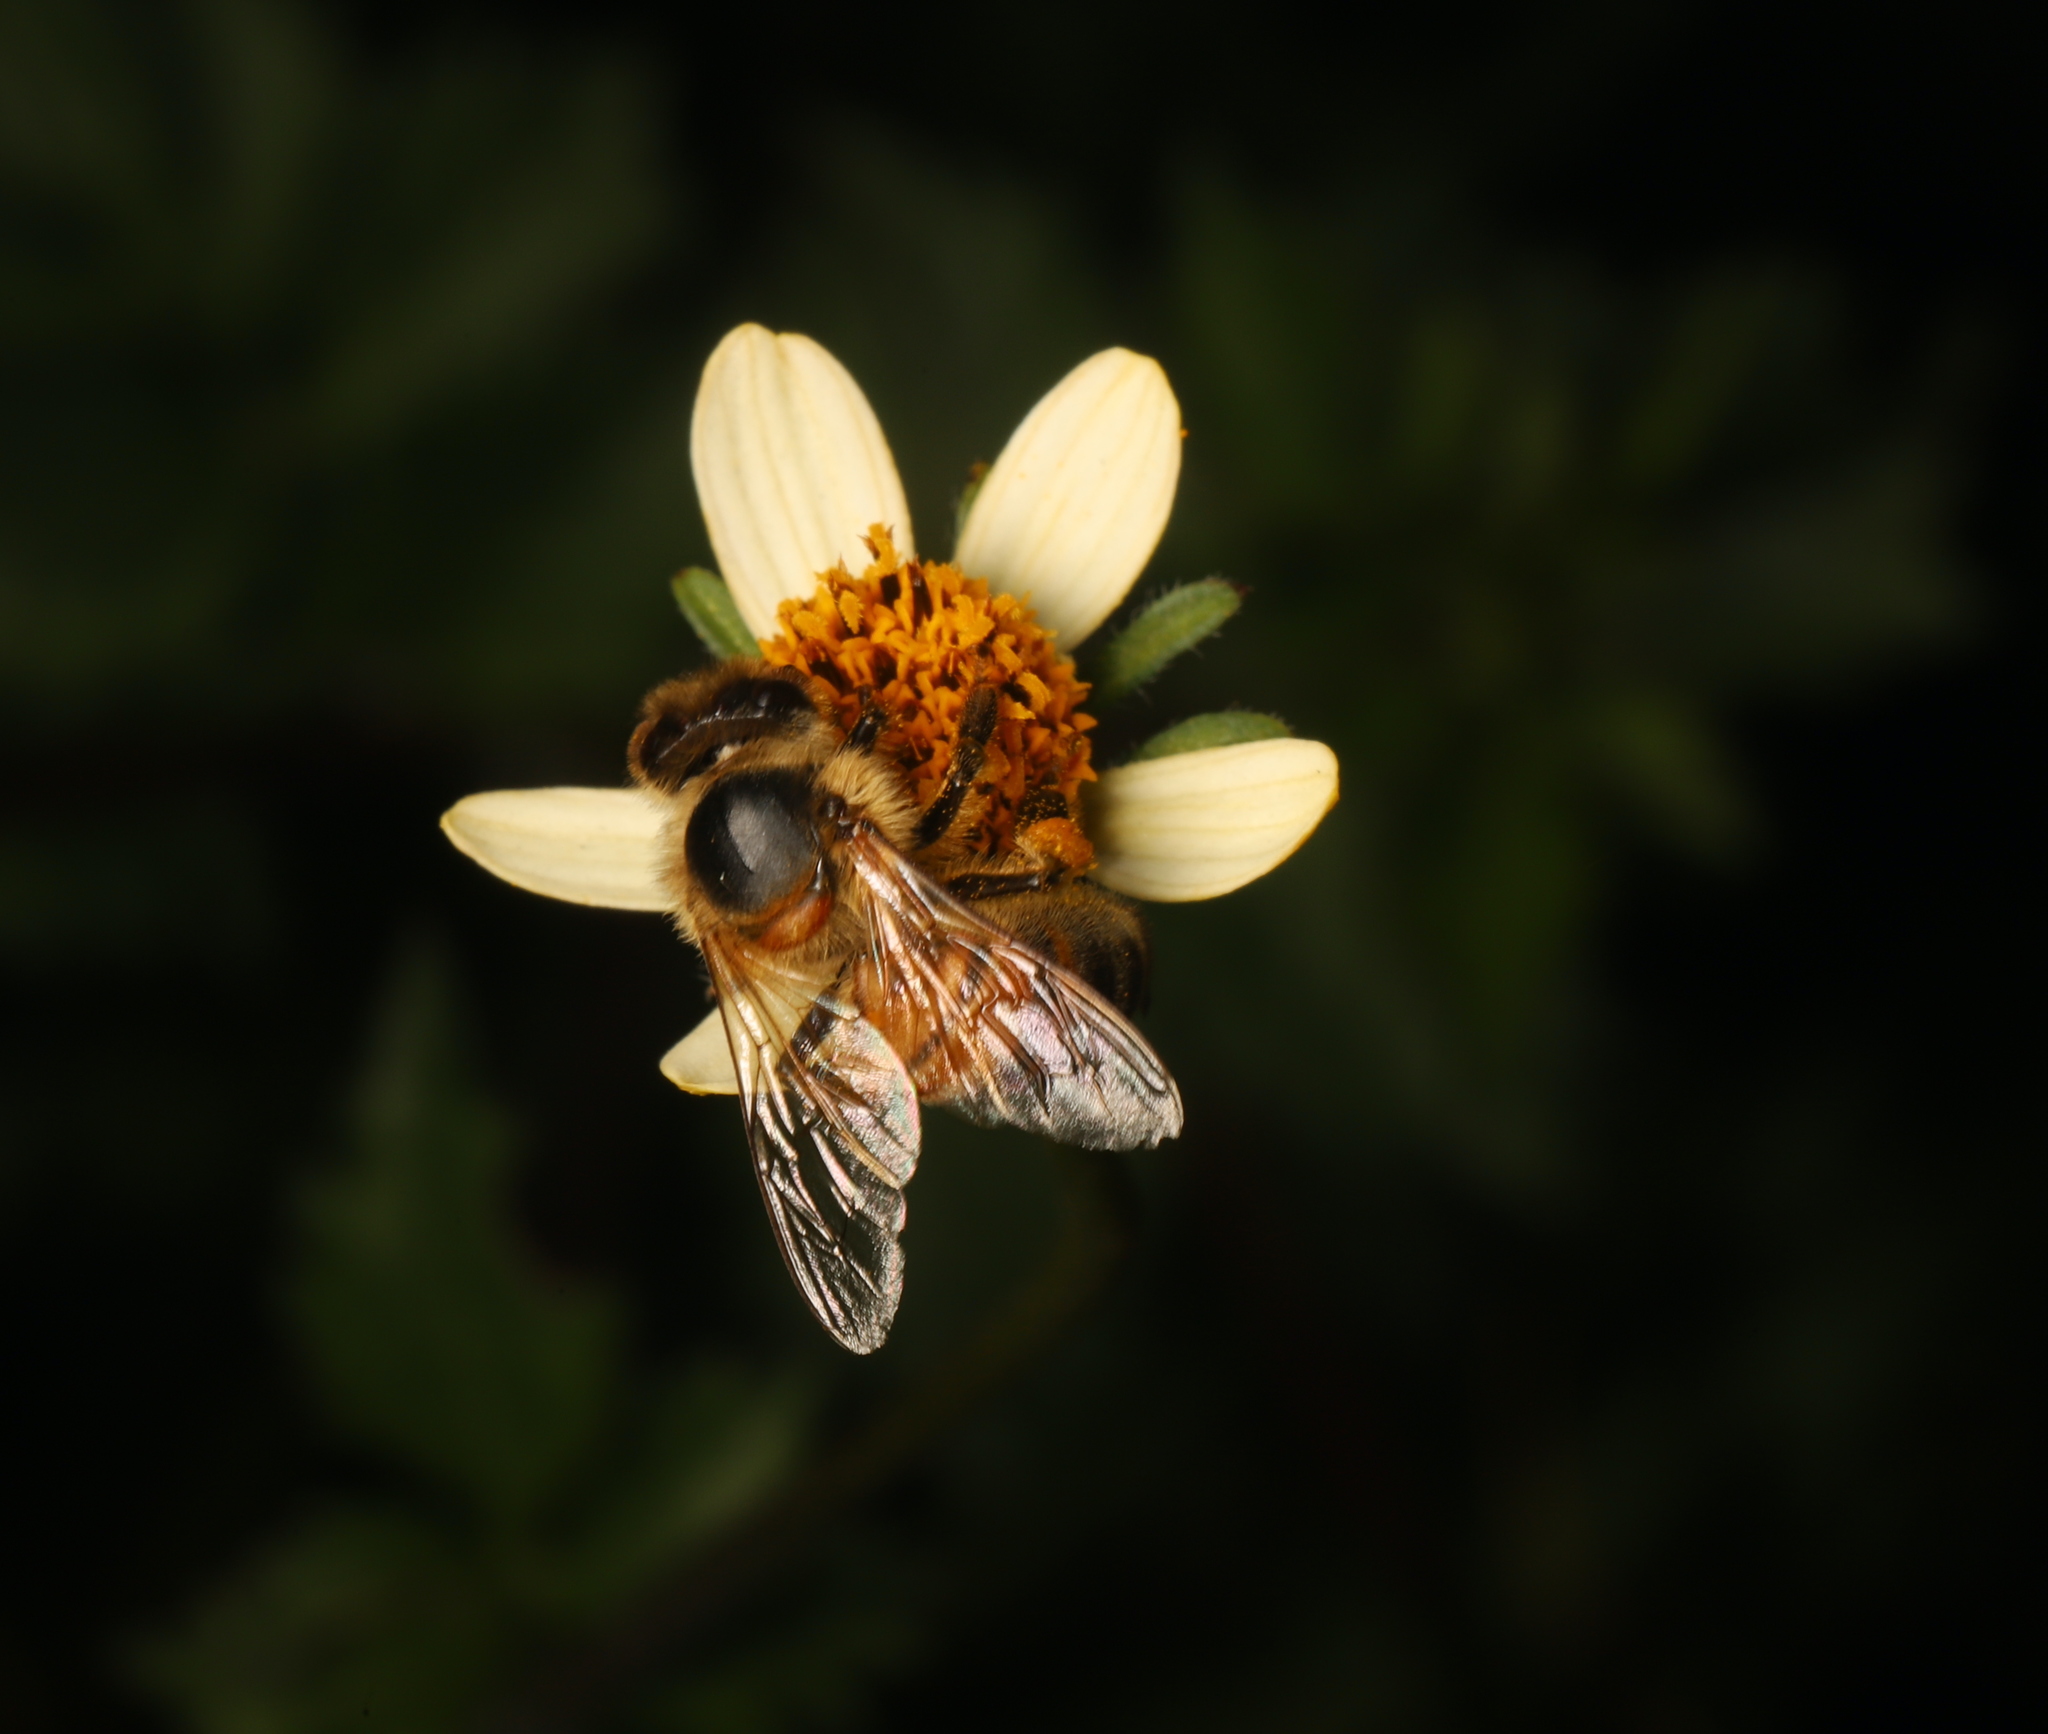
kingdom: Animalia
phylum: Arthropoda
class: Insecta
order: Hymenoptera
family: Apidae
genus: Apis
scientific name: Apis mellifera
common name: Honey bee
